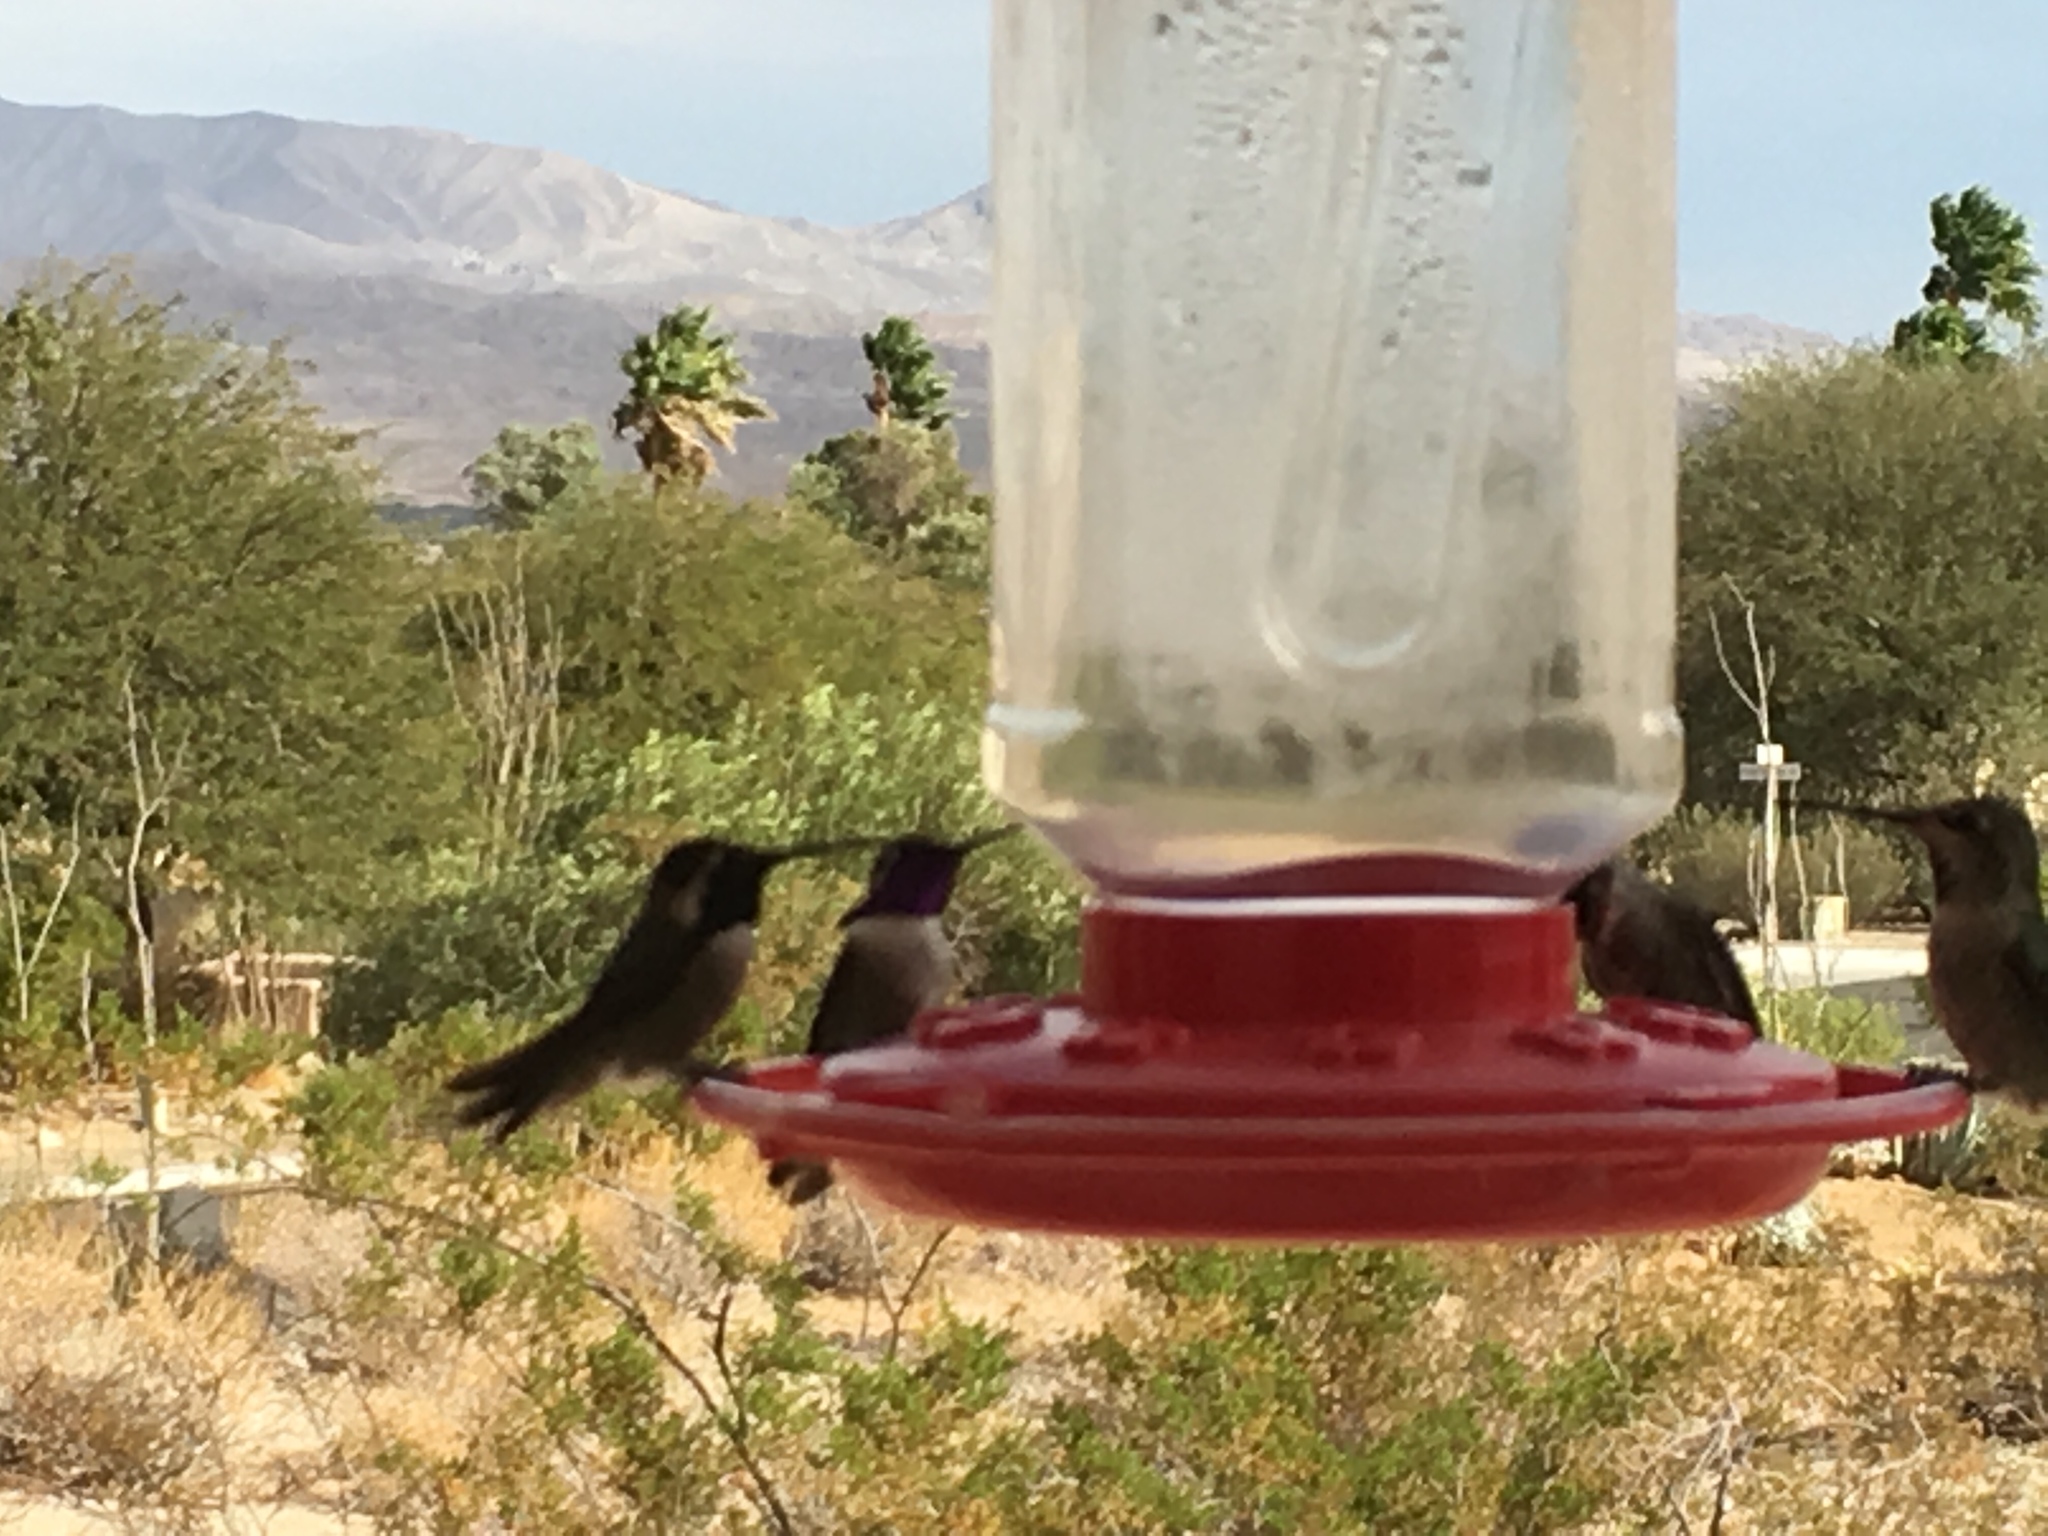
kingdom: Animalia
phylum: Chordata
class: Aves
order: Apodiformes
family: Trochilidae
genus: Calypte
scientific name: Calypte costae
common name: Costa's hummingbird
